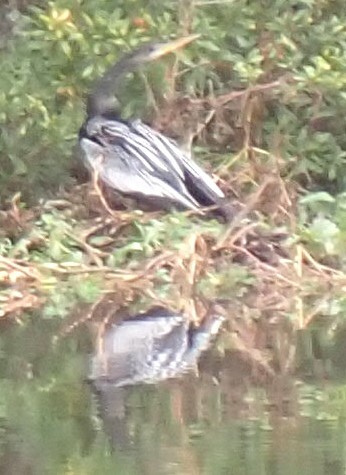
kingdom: Animalia
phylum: Chordata
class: Aves
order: Suliformes
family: Anhingidae
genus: Anhinga
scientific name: Anhinga anhinga
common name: Anhinga
